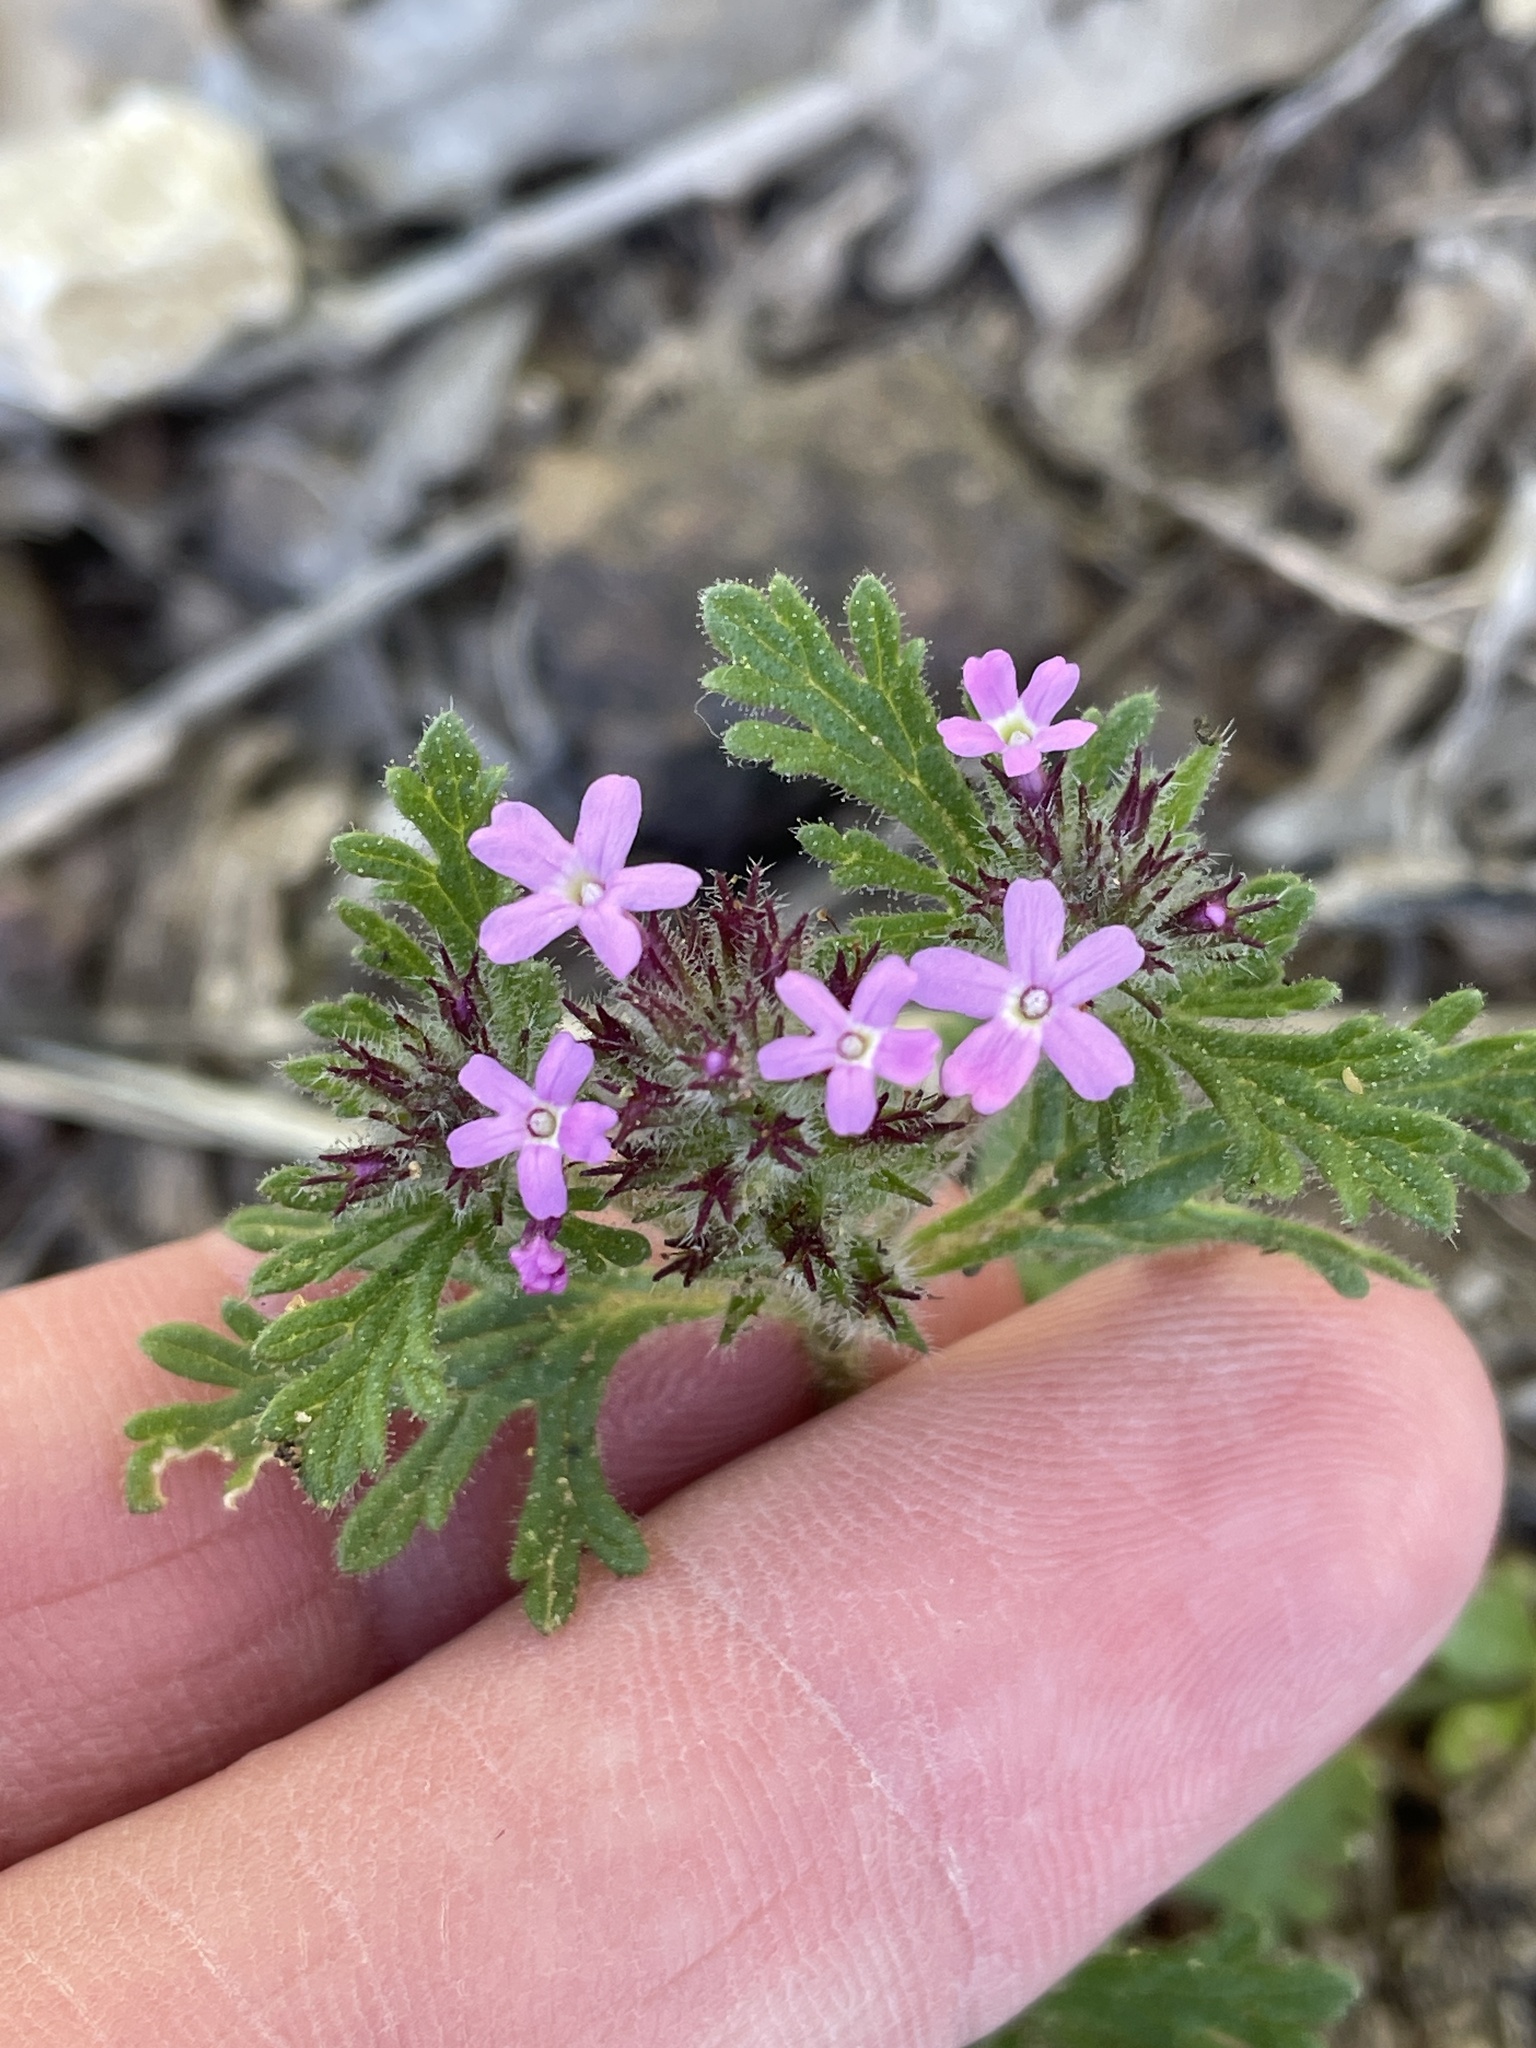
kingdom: Plantae
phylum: Tracheophyta
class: Magnoliopsida
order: Lamiales
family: Verbenaceae
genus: Verbena
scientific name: Verbena pumila
